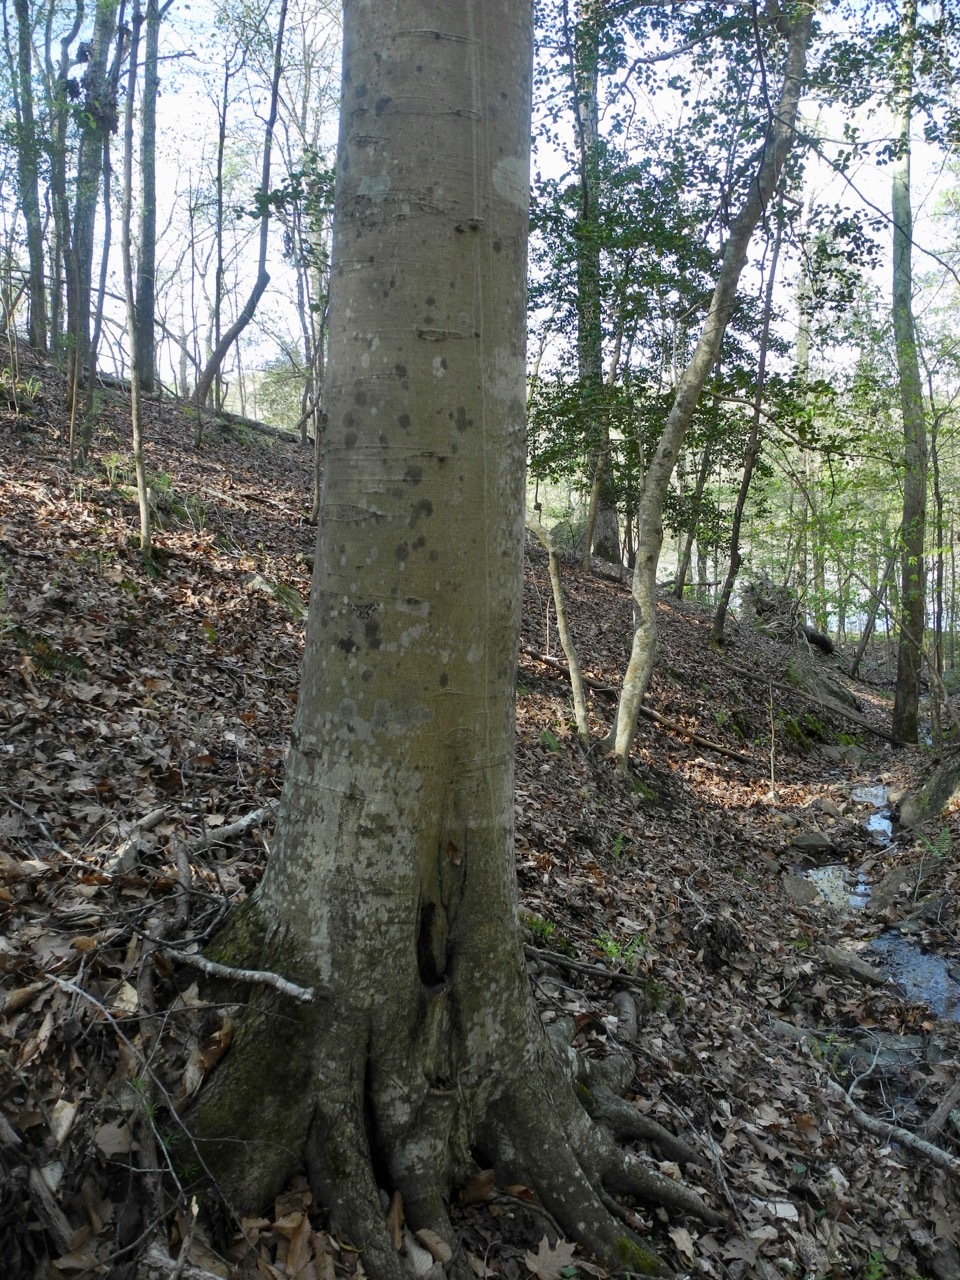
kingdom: Plantae
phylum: Tracheophyta
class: Magnoliopsida
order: Fagales
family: Fagaceae
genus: Fagus
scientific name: Fagus grandifolia
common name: American beech
